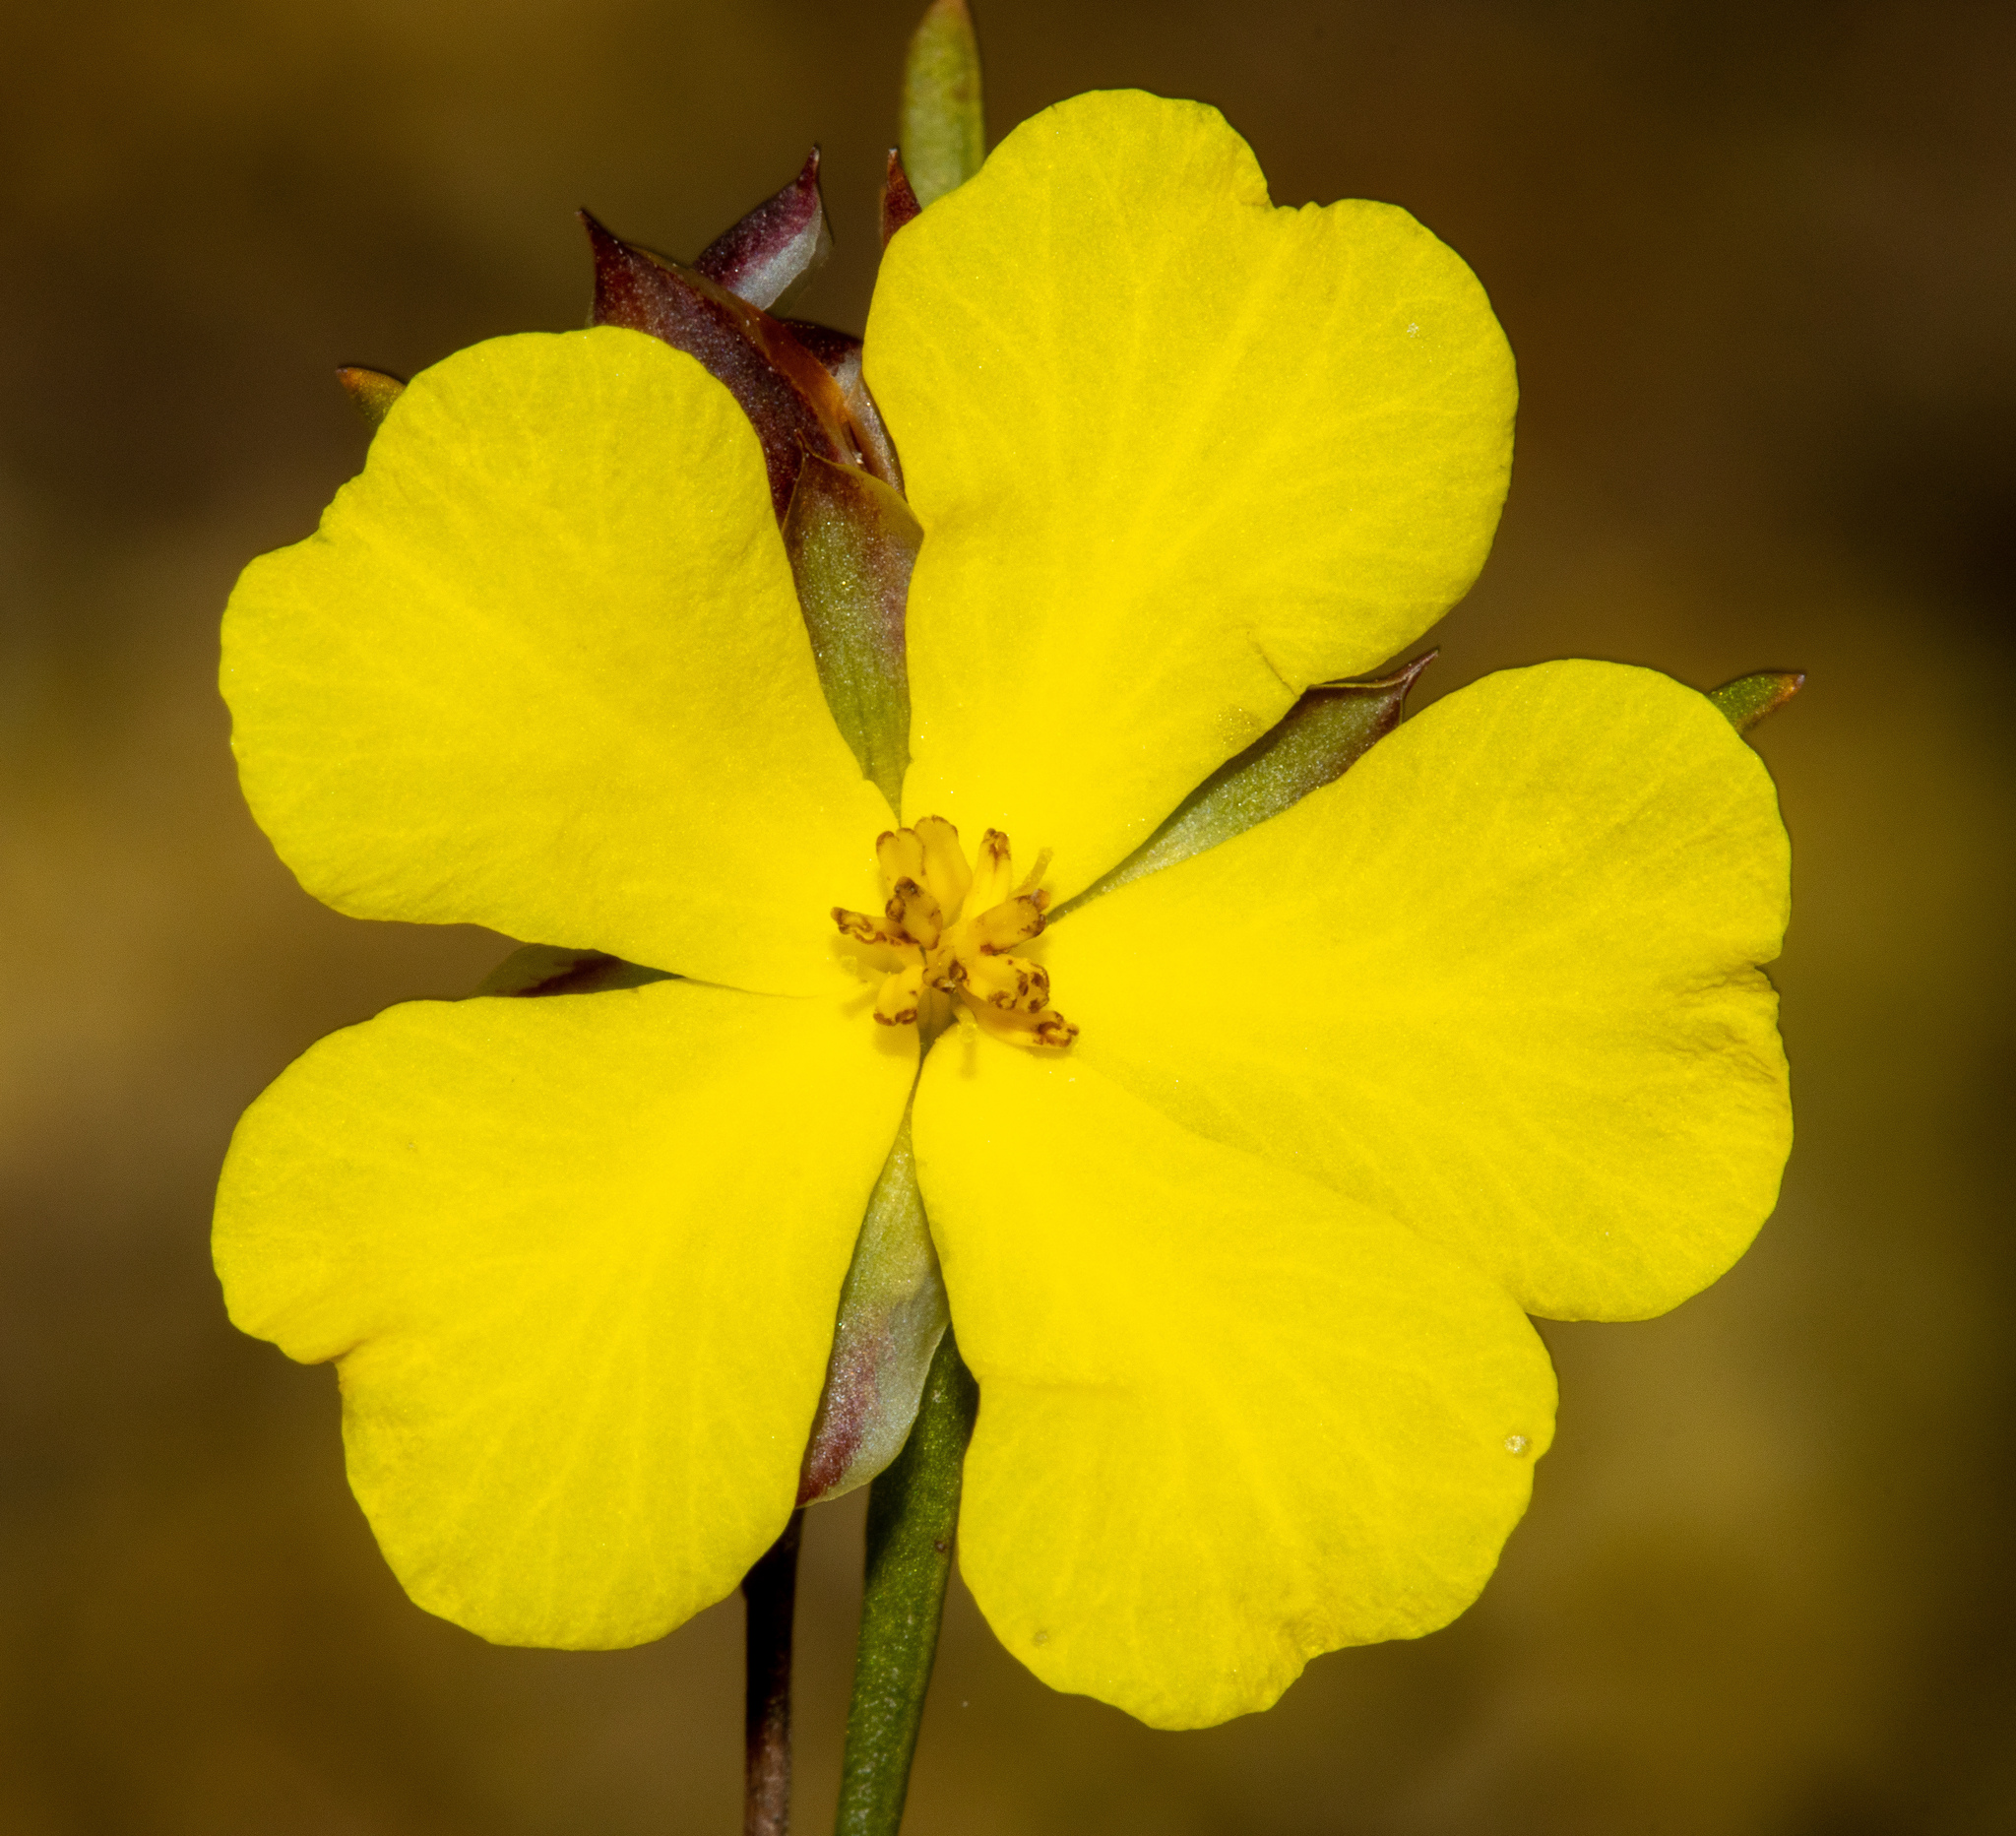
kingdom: Plantae
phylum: Tracheophyta
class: Magnoliopsida
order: Dilleniales
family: Dilleniaceae
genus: Hibbertia
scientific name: Hibbertia virgata
